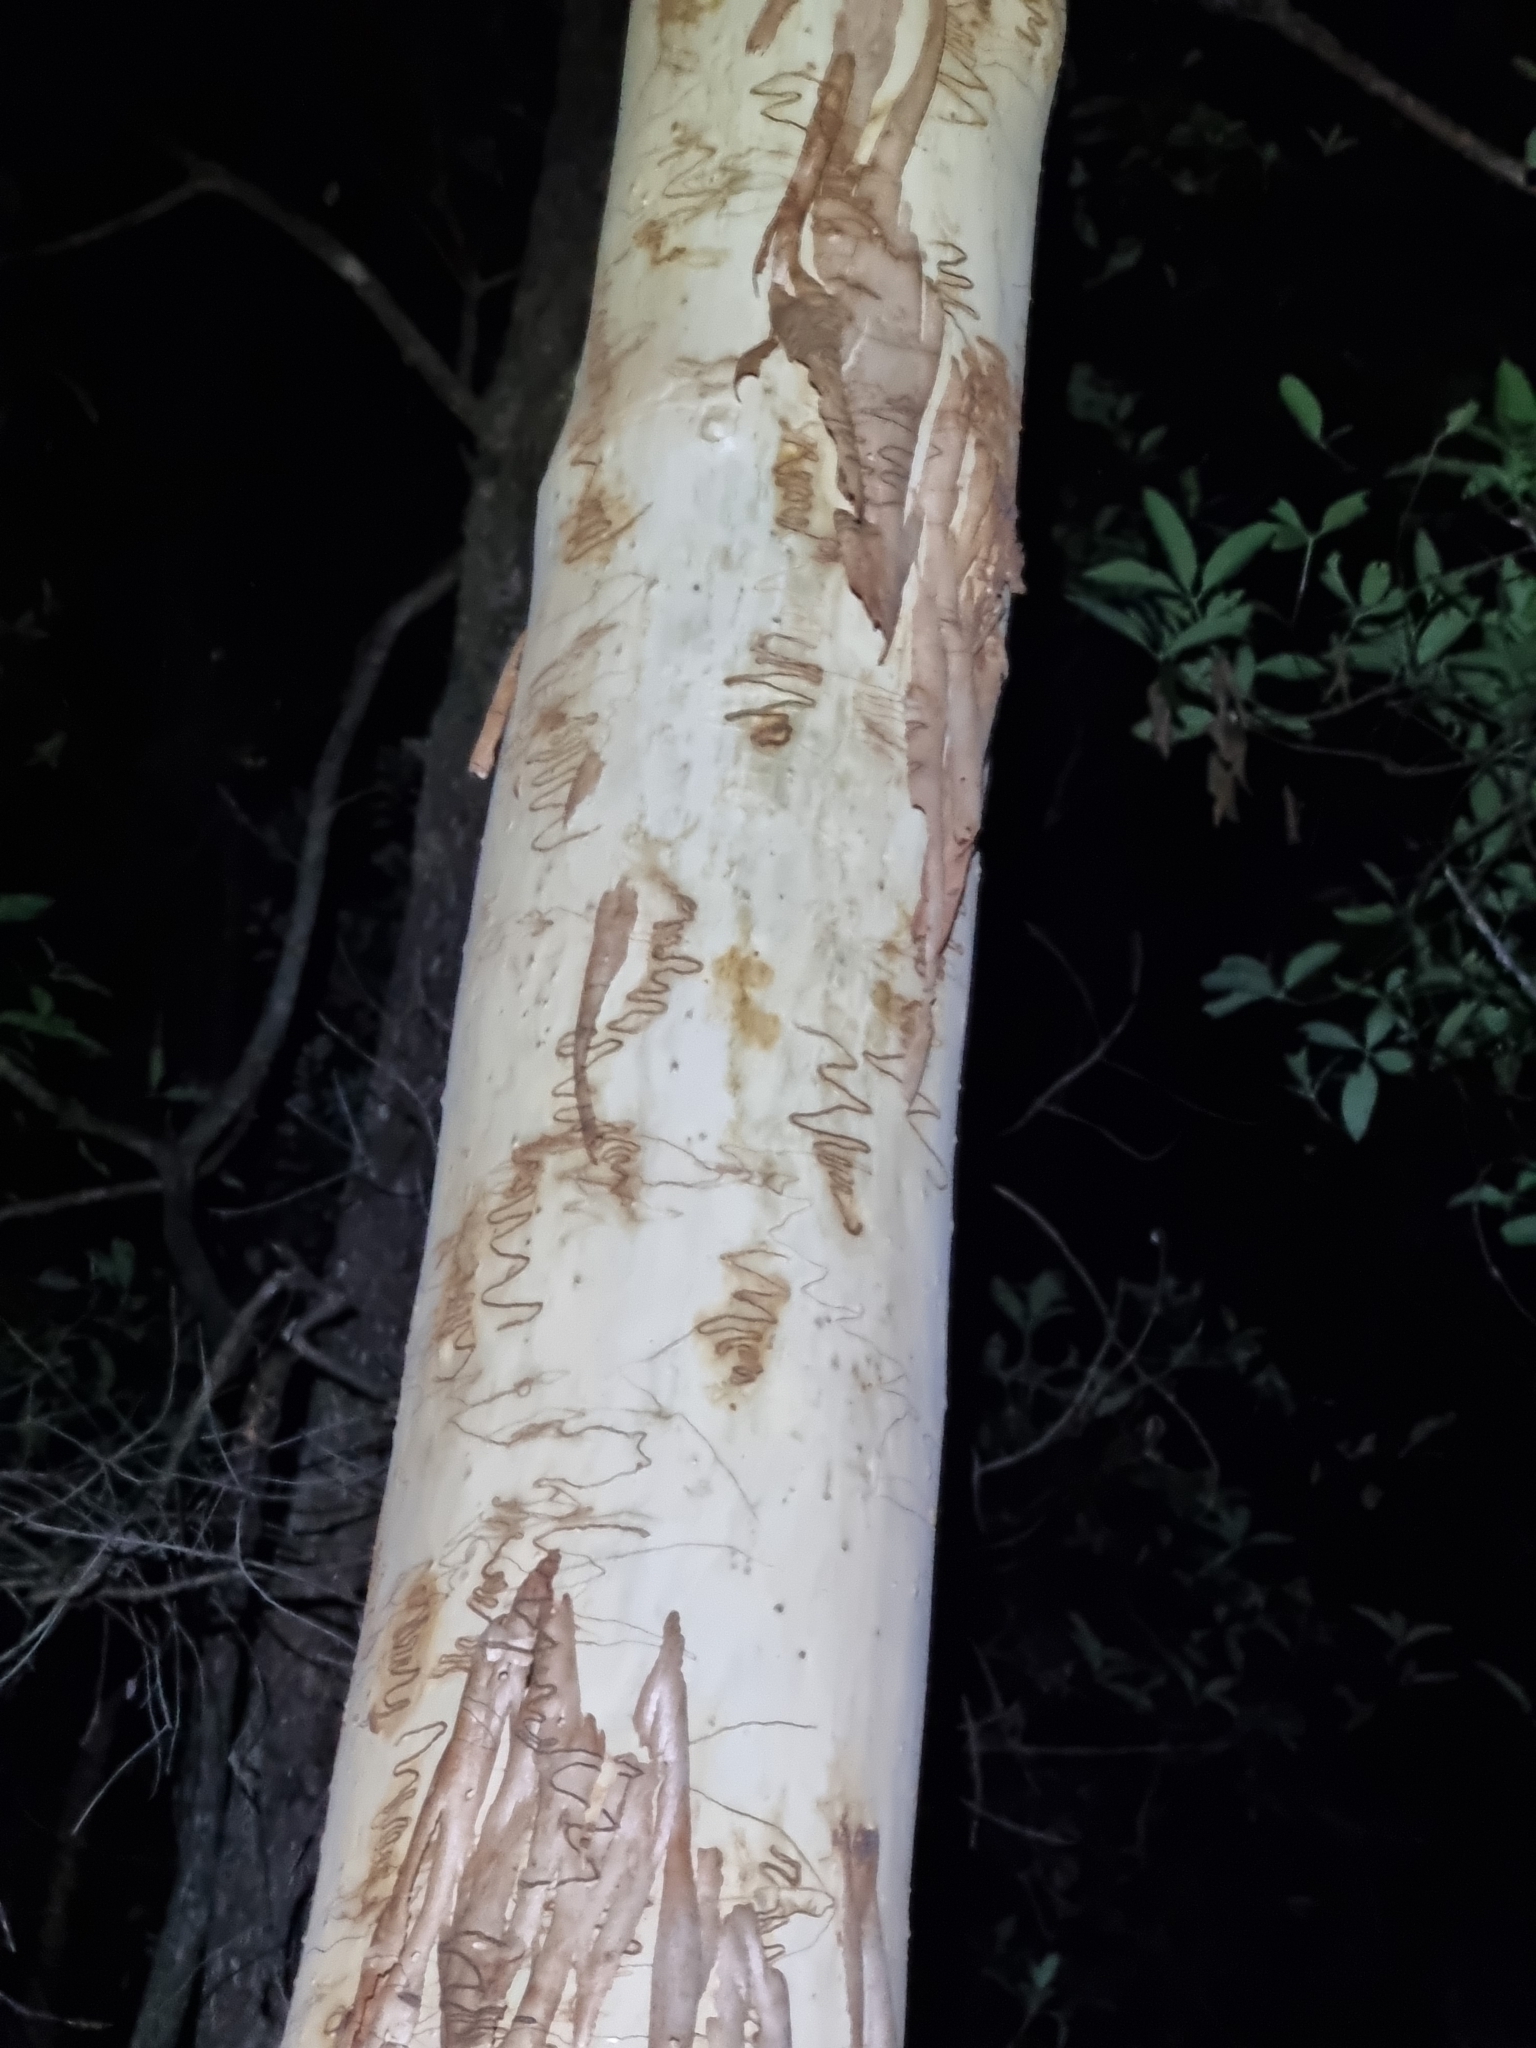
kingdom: Plantae
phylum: Tracheophyta
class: Magnoliopsida
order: Myrtales
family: Myrtaceae
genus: Eucalyptus
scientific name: Eucalyptus racemosa
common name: Scribbly gum
